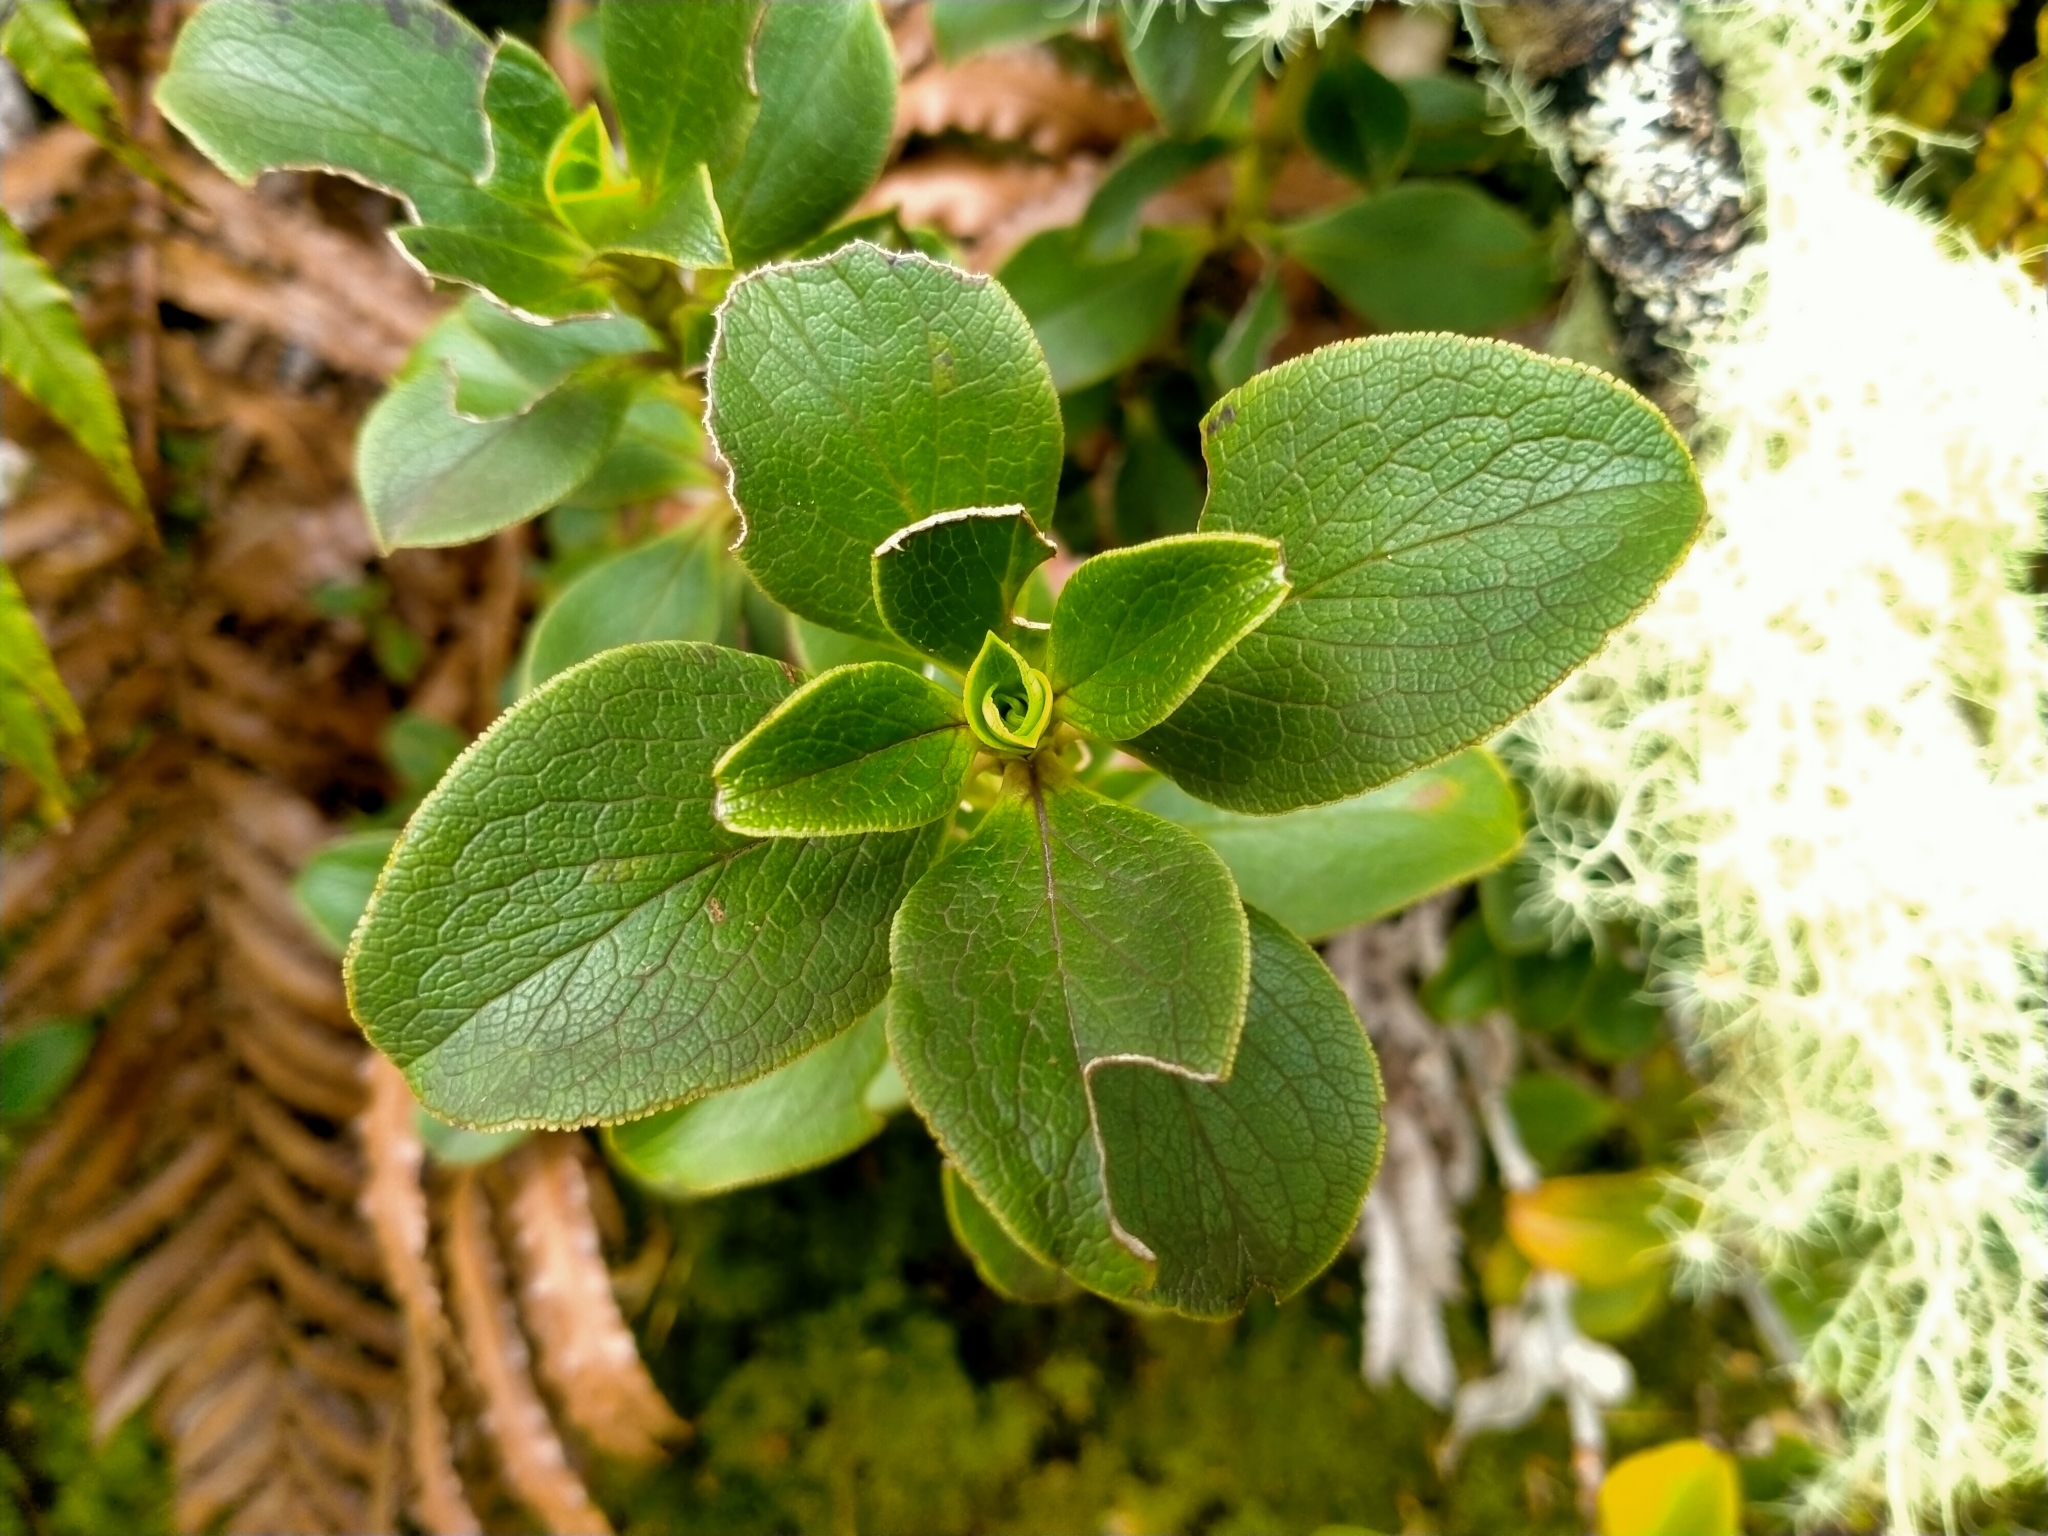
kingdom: Plantae
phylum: Tracheophyta
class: Magnoliopsida
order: Gentianales
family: Rubiaceae
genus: Coprosma
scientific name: Coprosma serrulata
